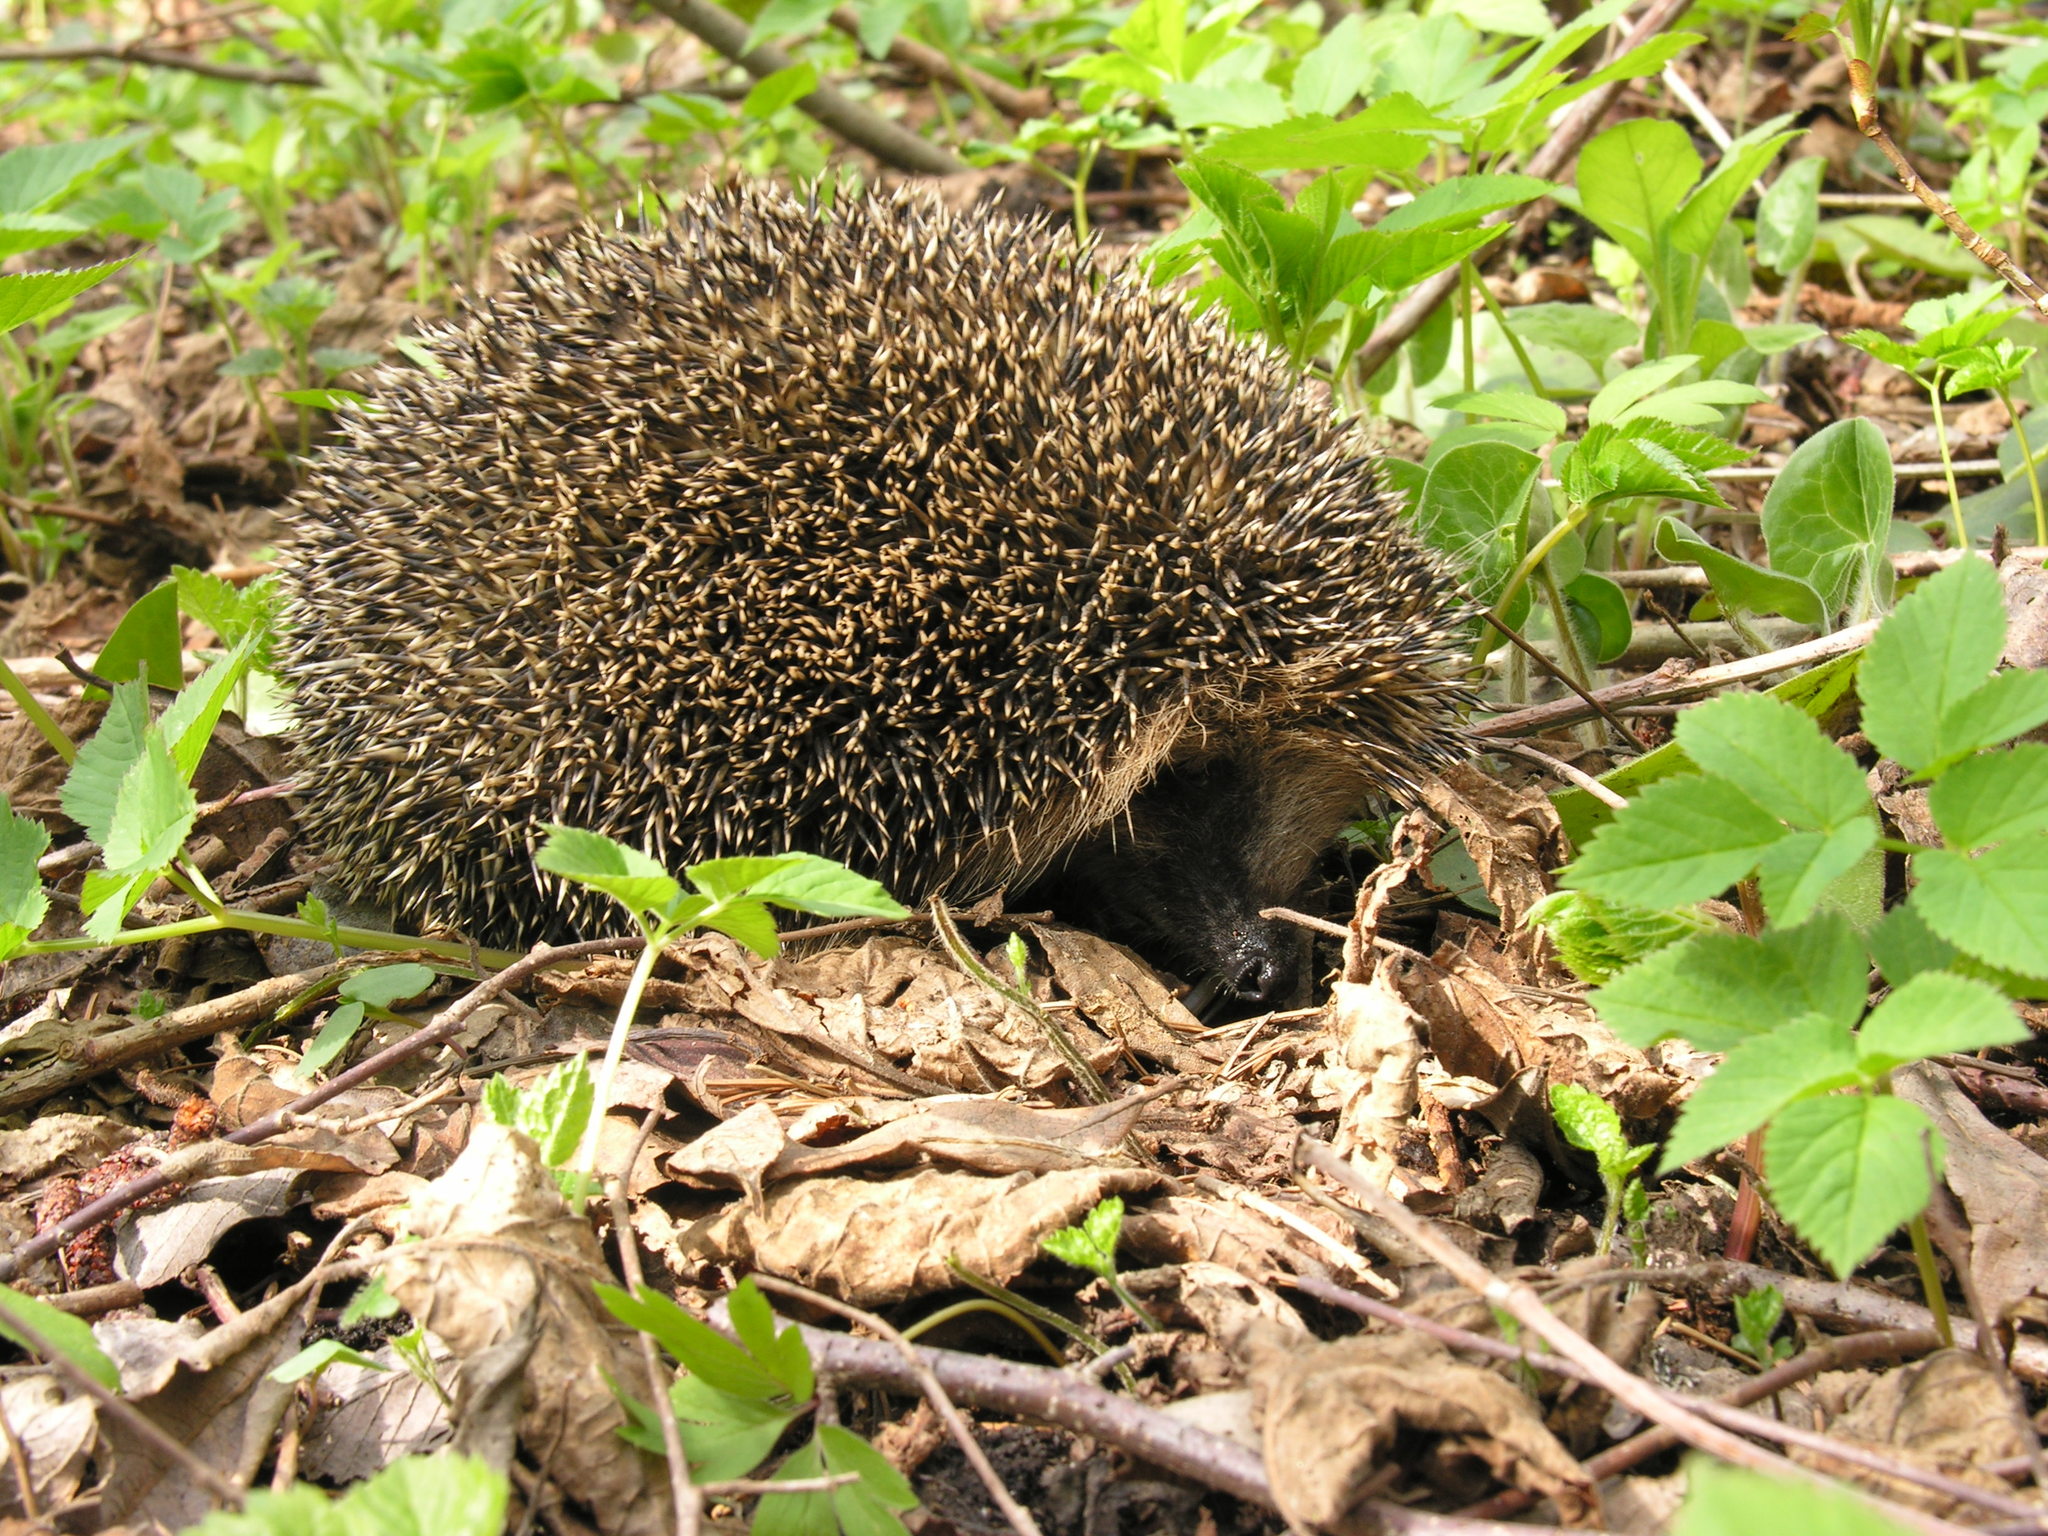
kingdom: Animalia
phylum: Chordata
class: Mammalia
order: Erinaceomorpha
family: Erinaceidae
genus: Erinaceus
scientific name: Erinaceus europaeus
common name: West european hedgehog
